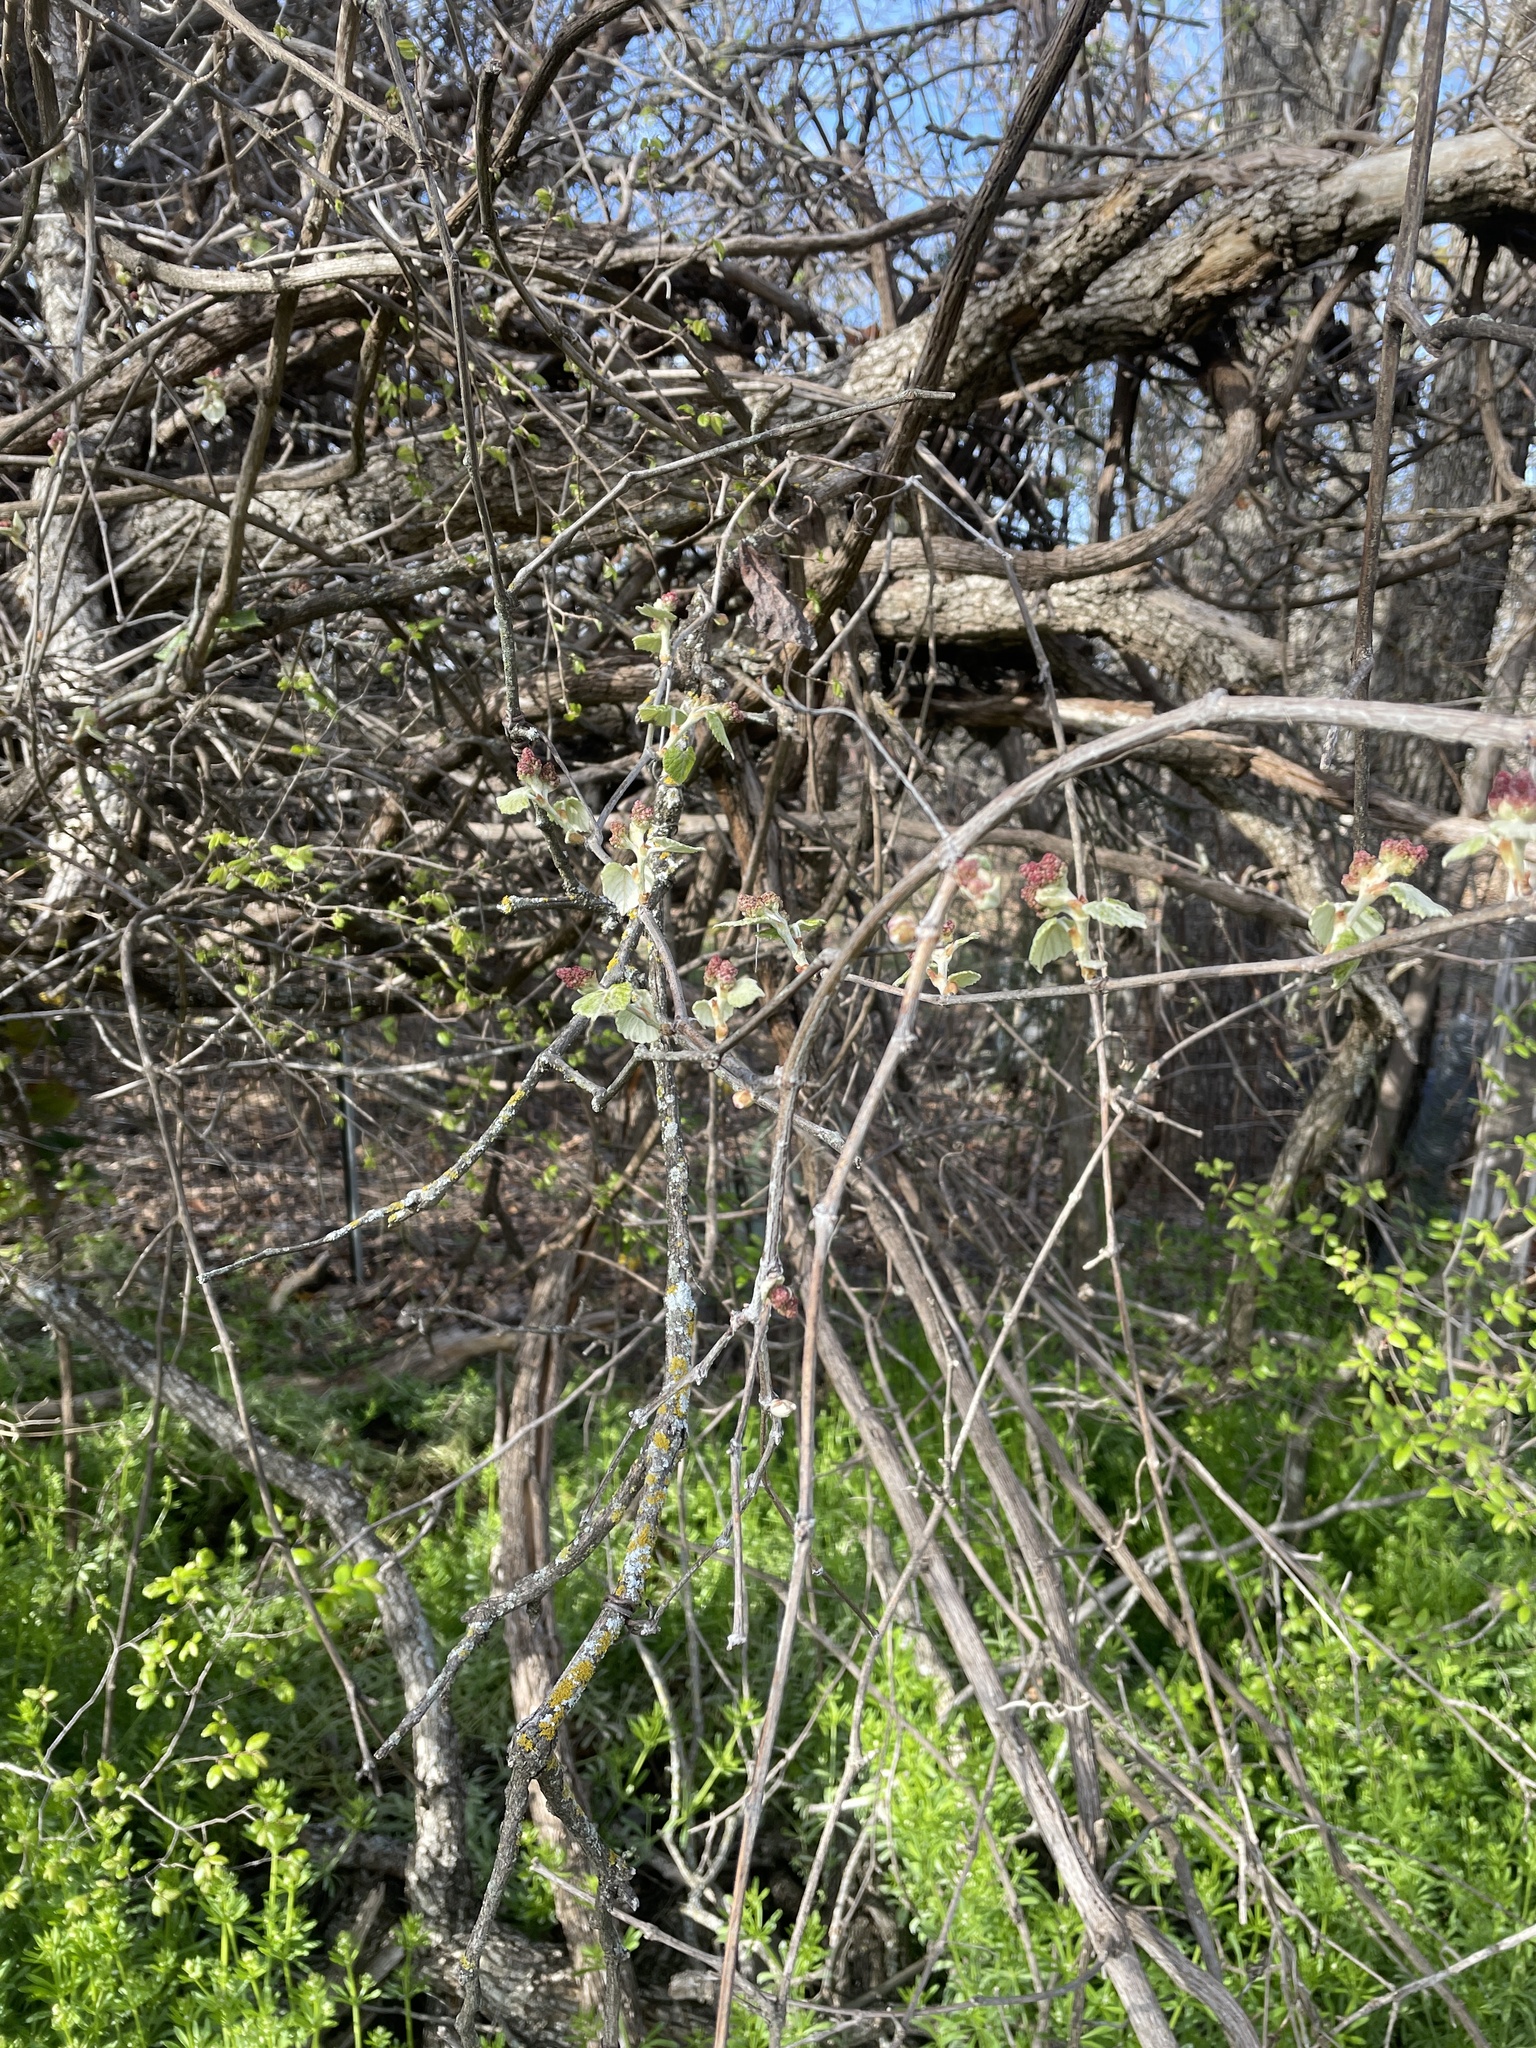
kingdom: Plantae
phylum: Tracheophyta
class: Magnoliopsida
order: Vitales
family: Vitaceae
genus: Vitis
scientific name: Vitis mustangensis
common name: Mustang grape
